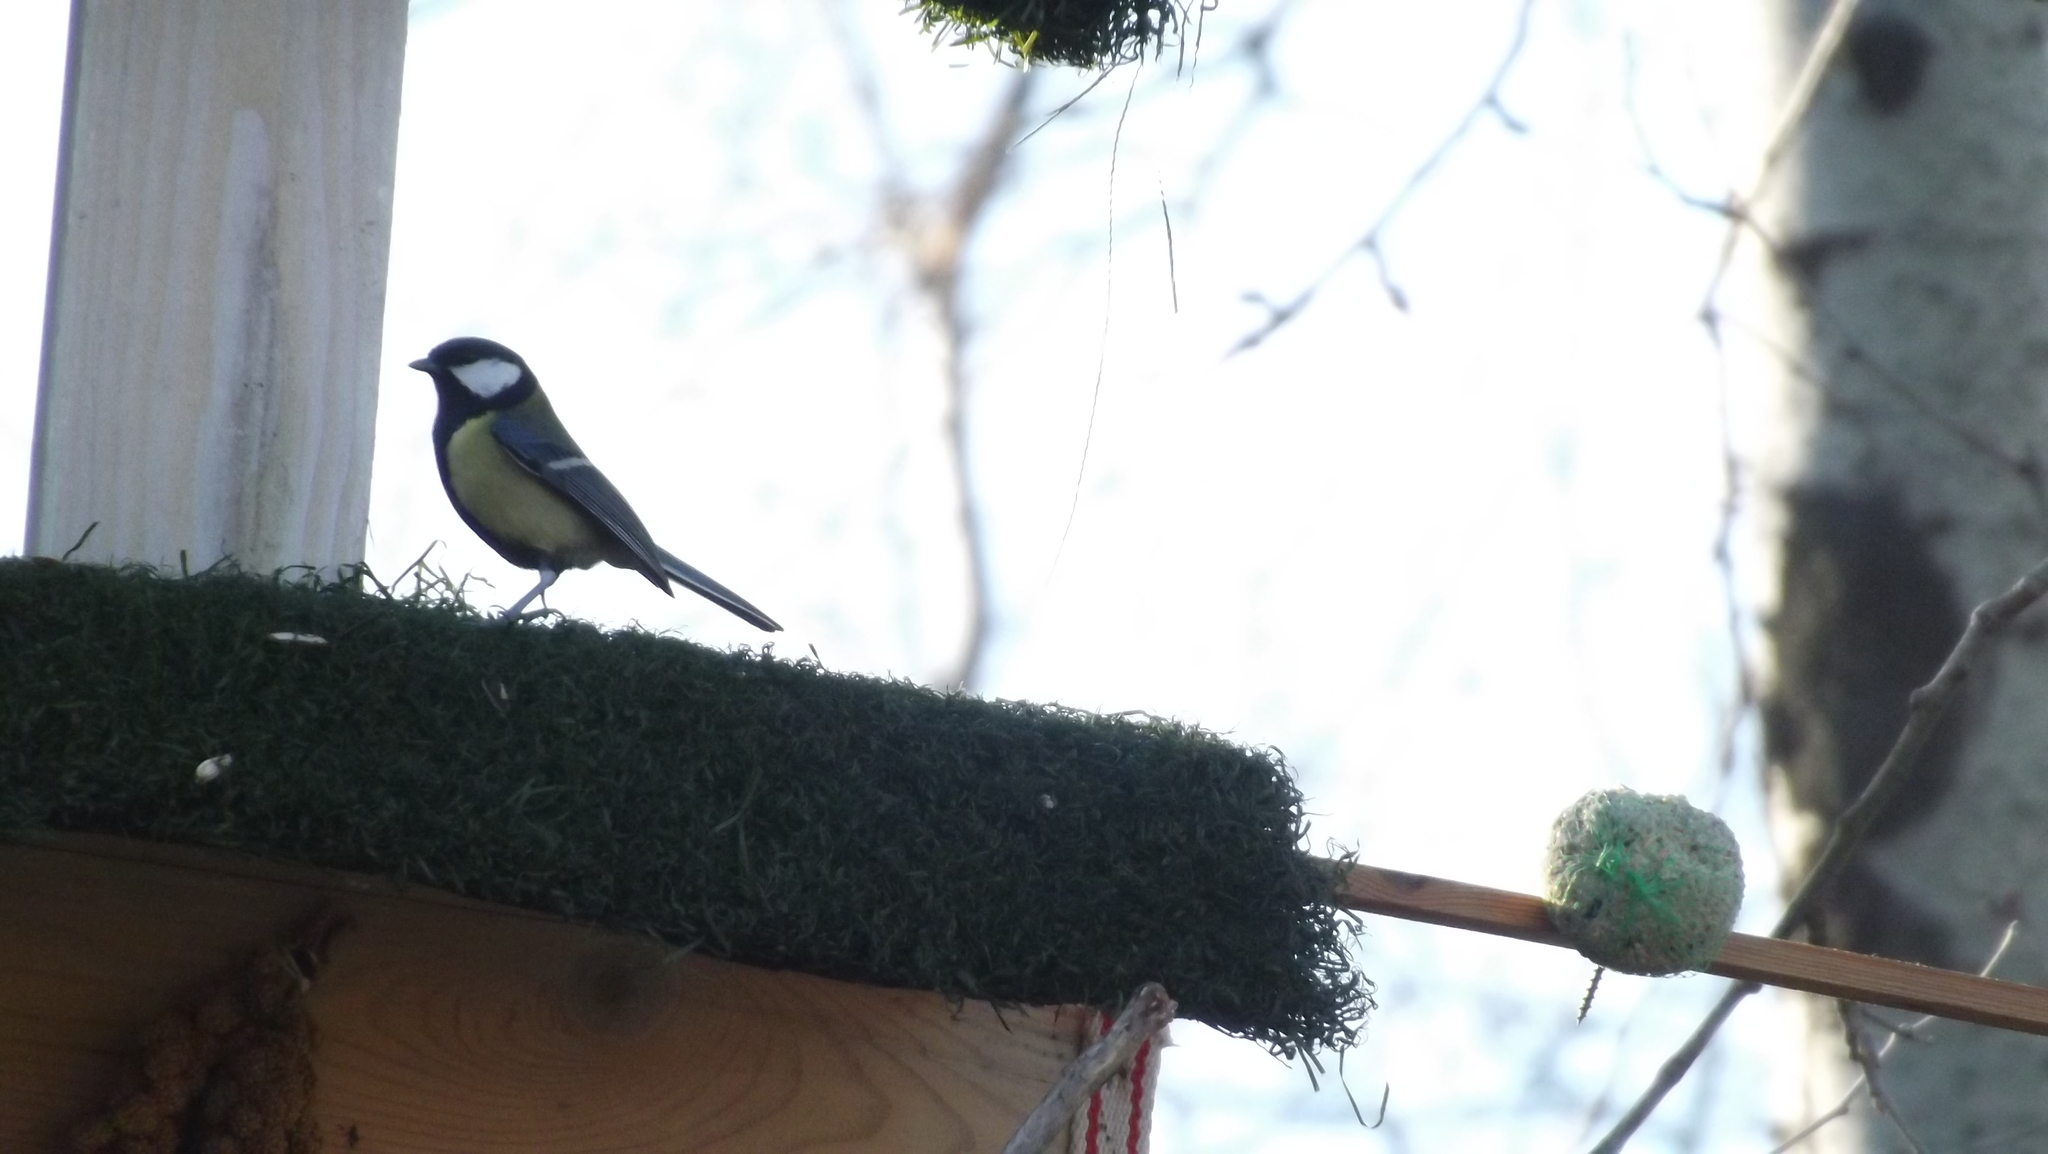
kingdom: Animalia
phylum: Chordata
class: Aves
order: Passeriformes
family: Paridae
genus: Parus
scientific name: Parus major
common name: Great tit
